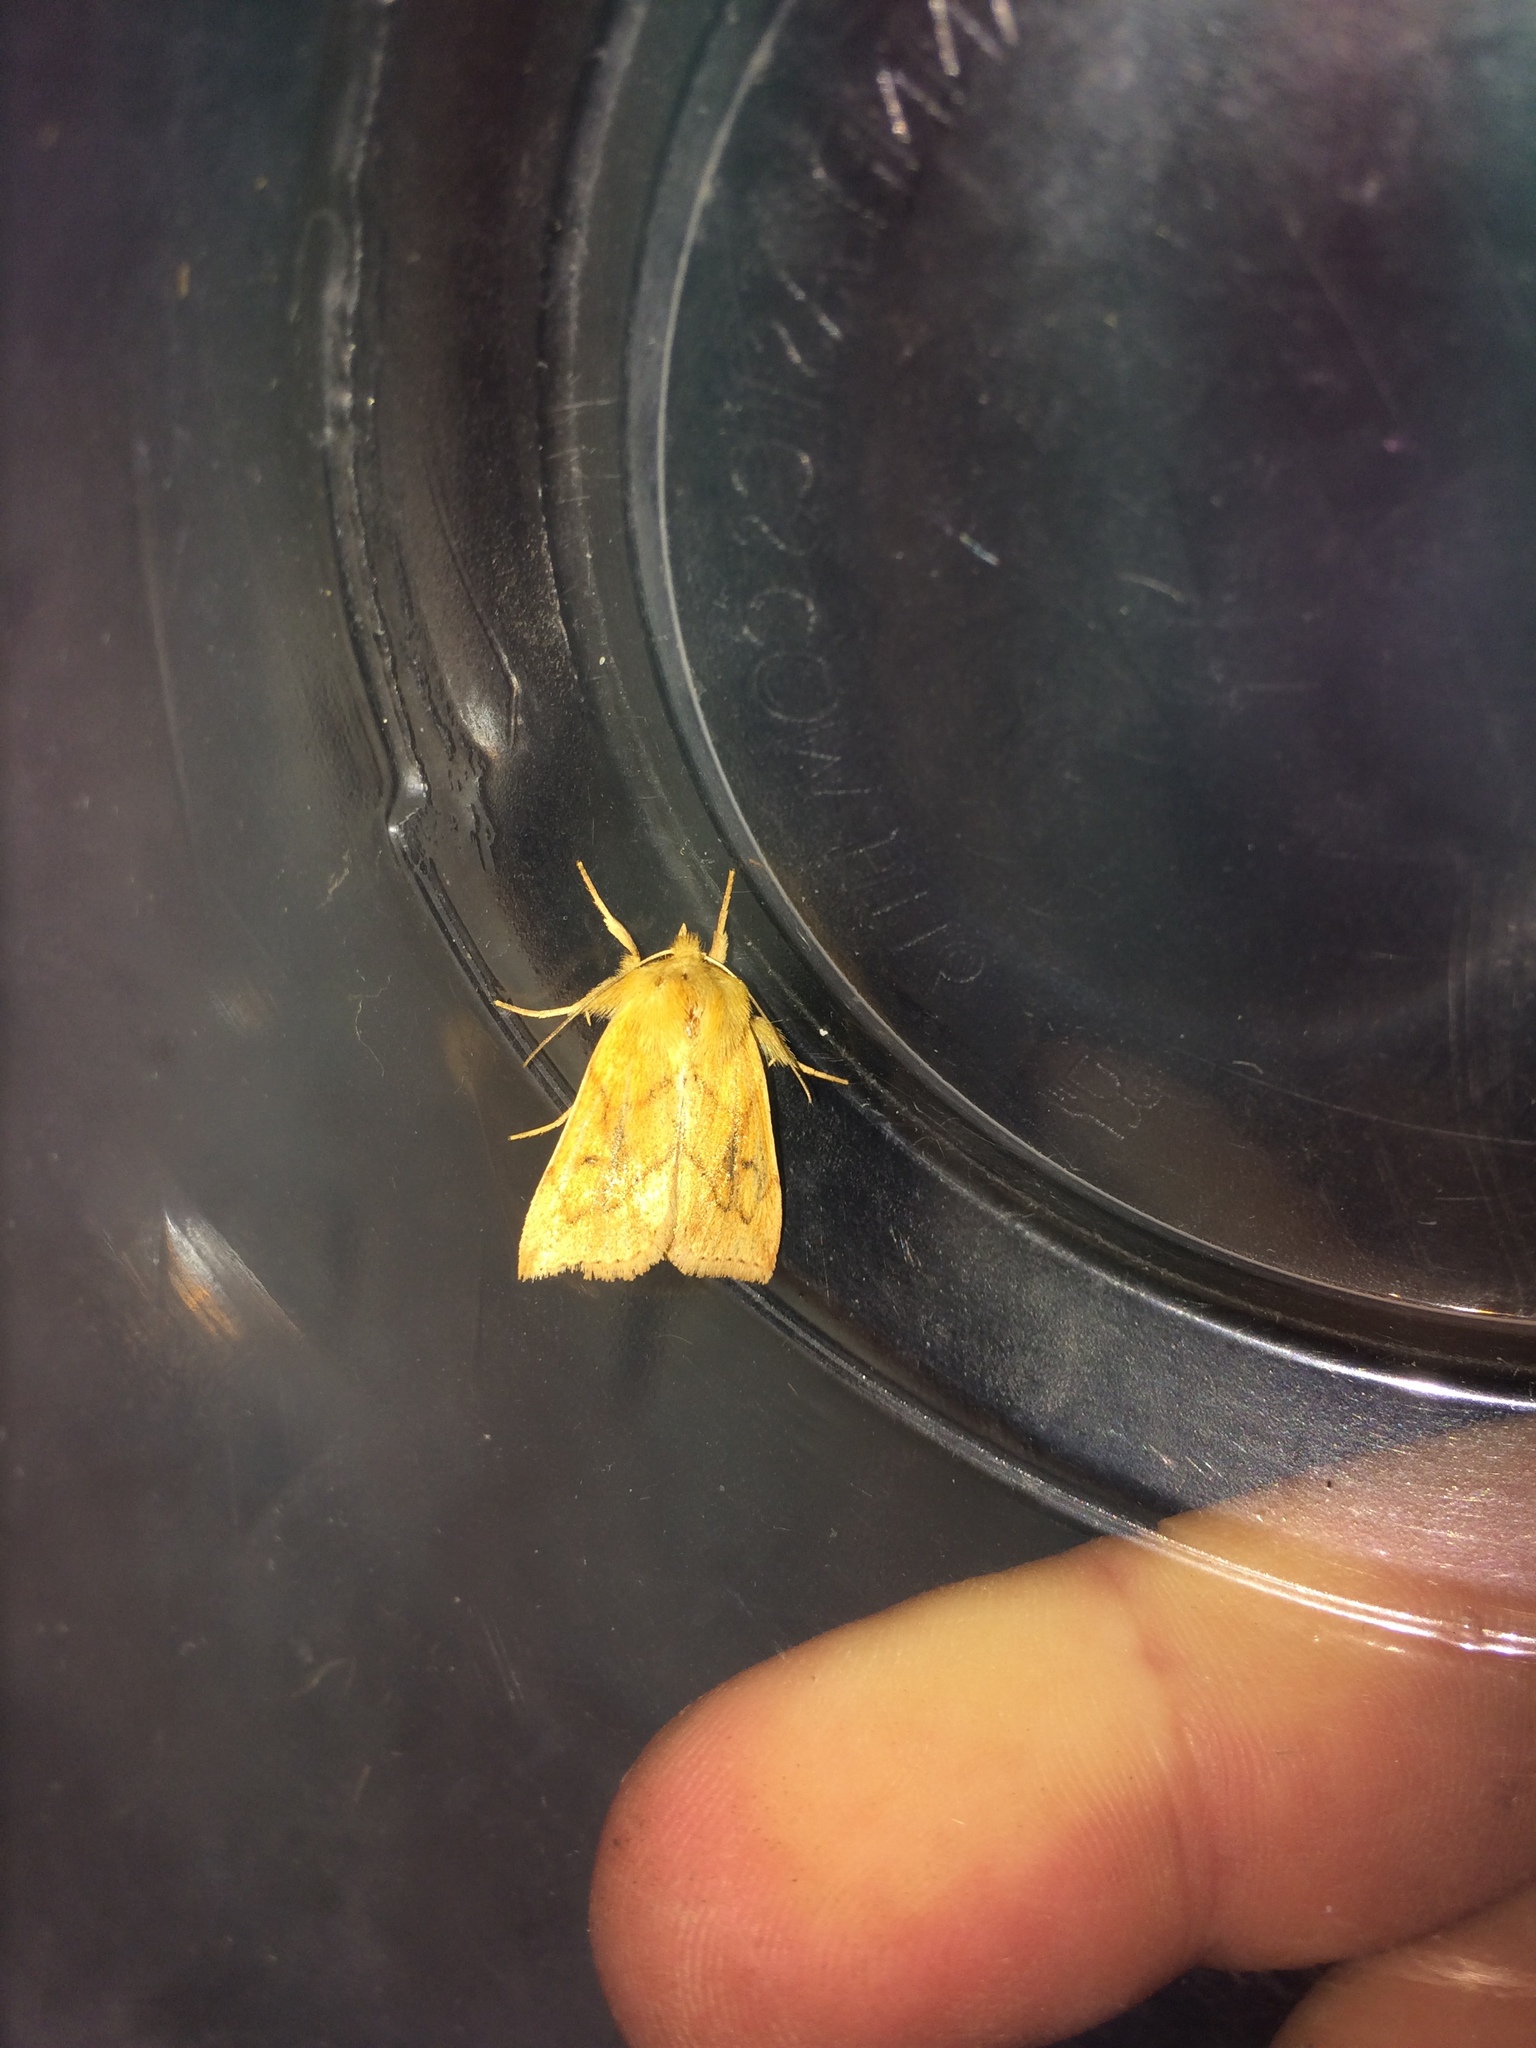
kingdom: Animalia
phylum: Arthropoda
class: Insecta
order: Lepidoptera
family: Noctuidae
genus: Zosteropoda
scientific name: Zosteropoda hirtipes
